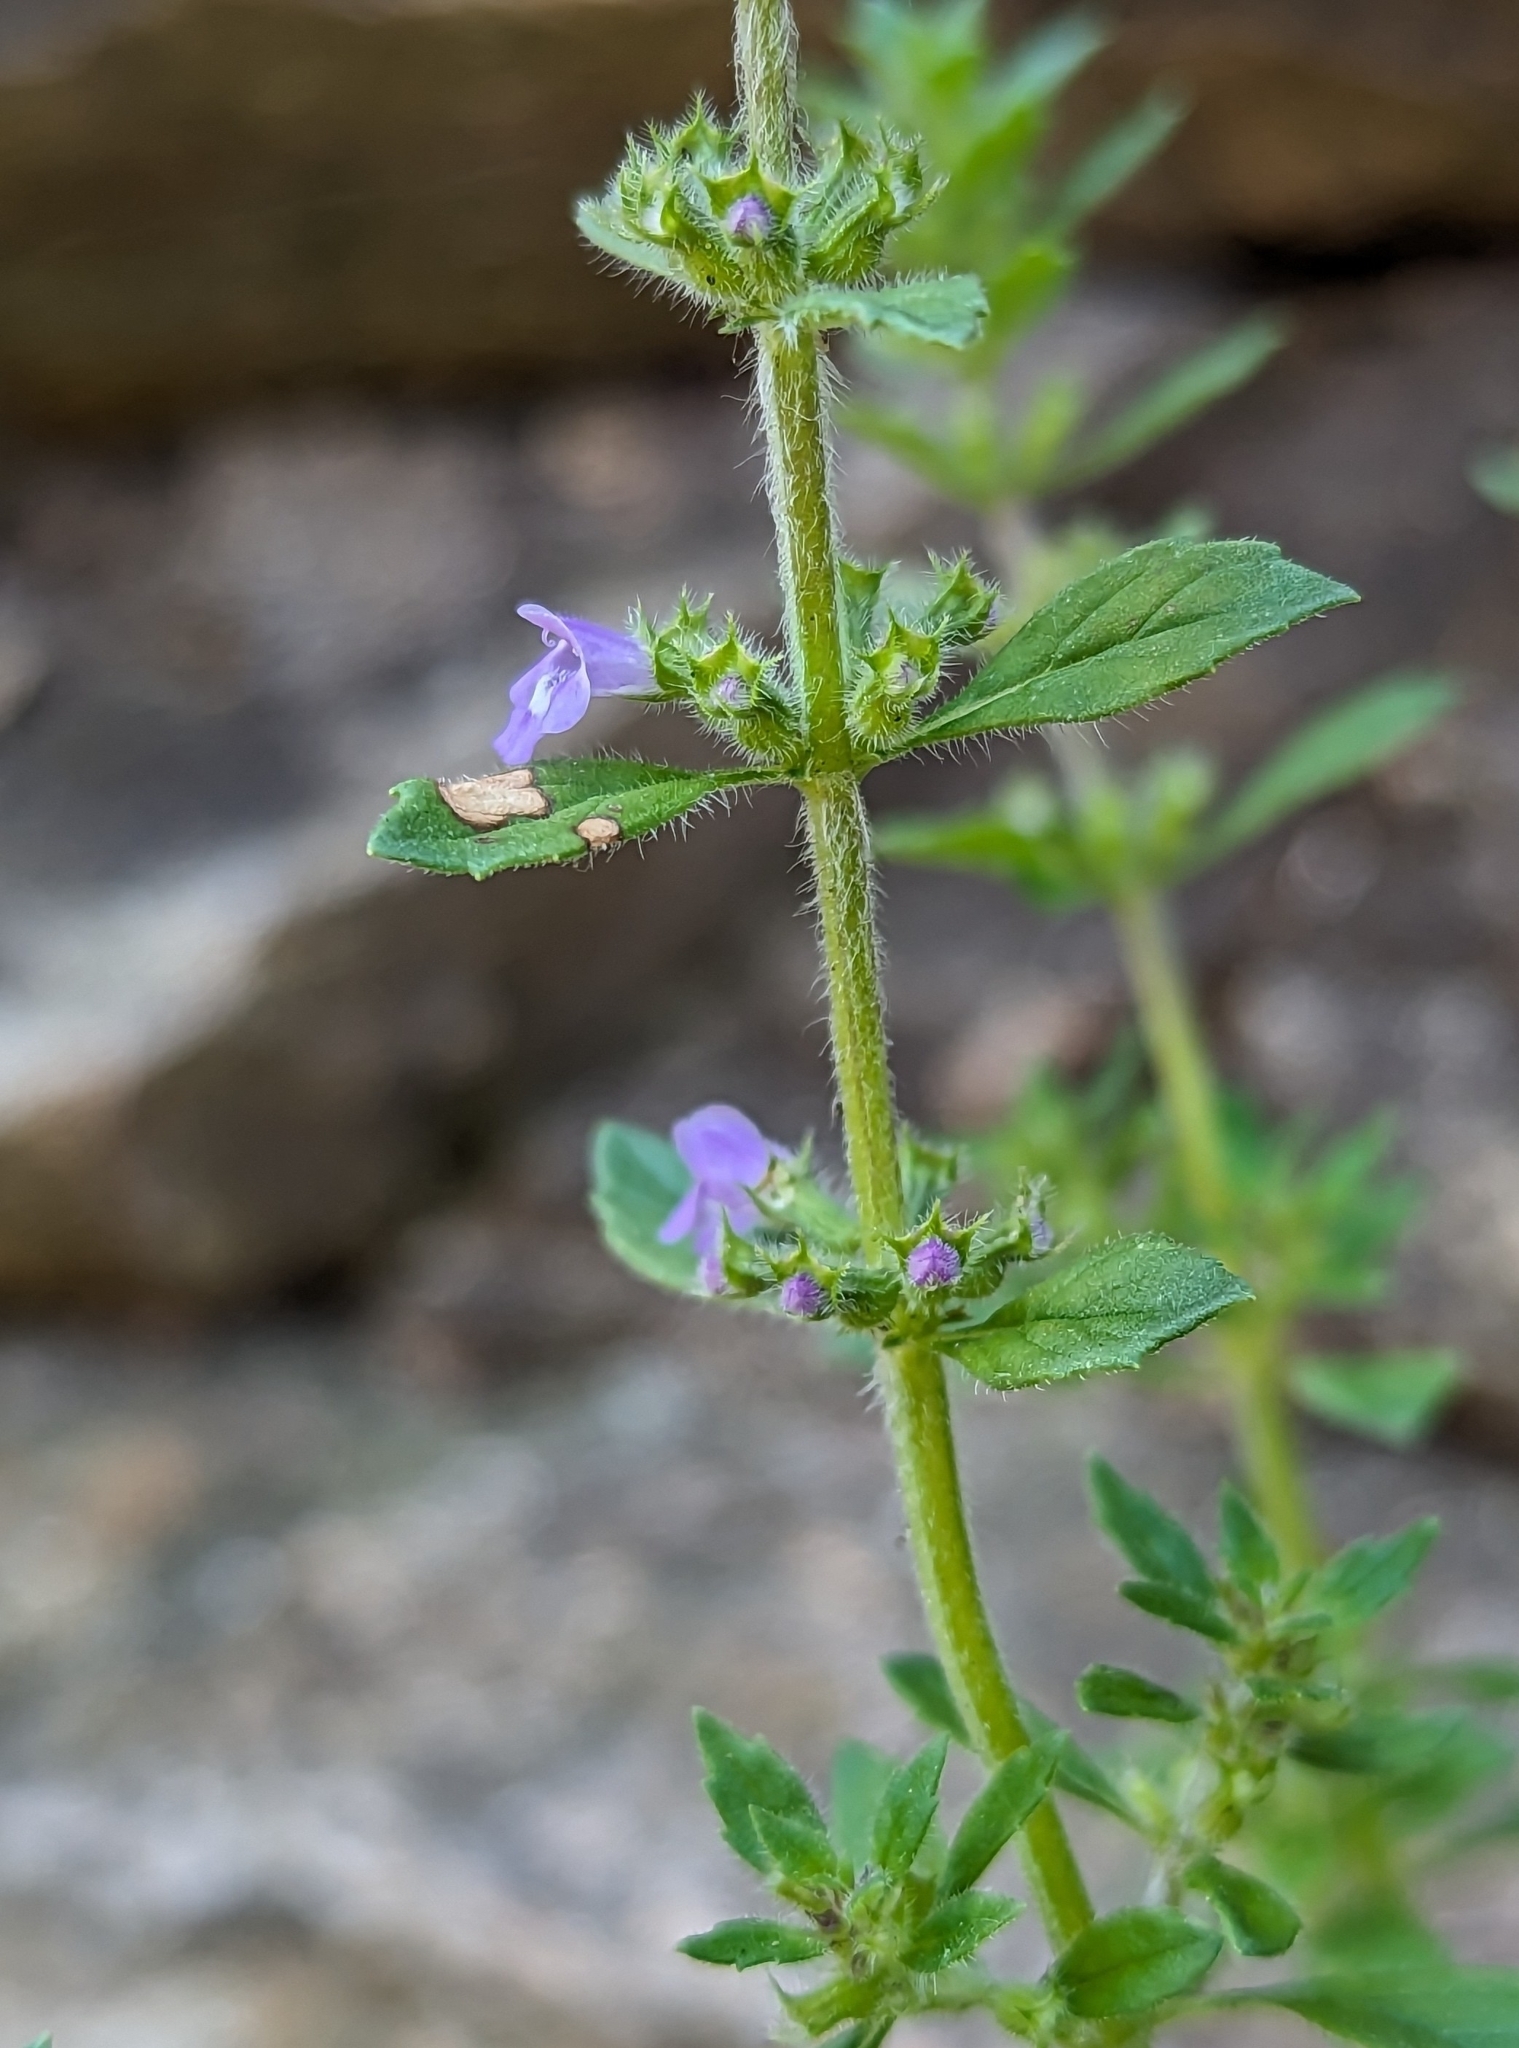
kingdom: Plantae
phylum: Tracheophyta
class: Magnoliopsida
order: Lamiales
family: Lamiaceae
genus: Clinopodium
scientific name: Clinopodium acinos
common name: Basil thyme
